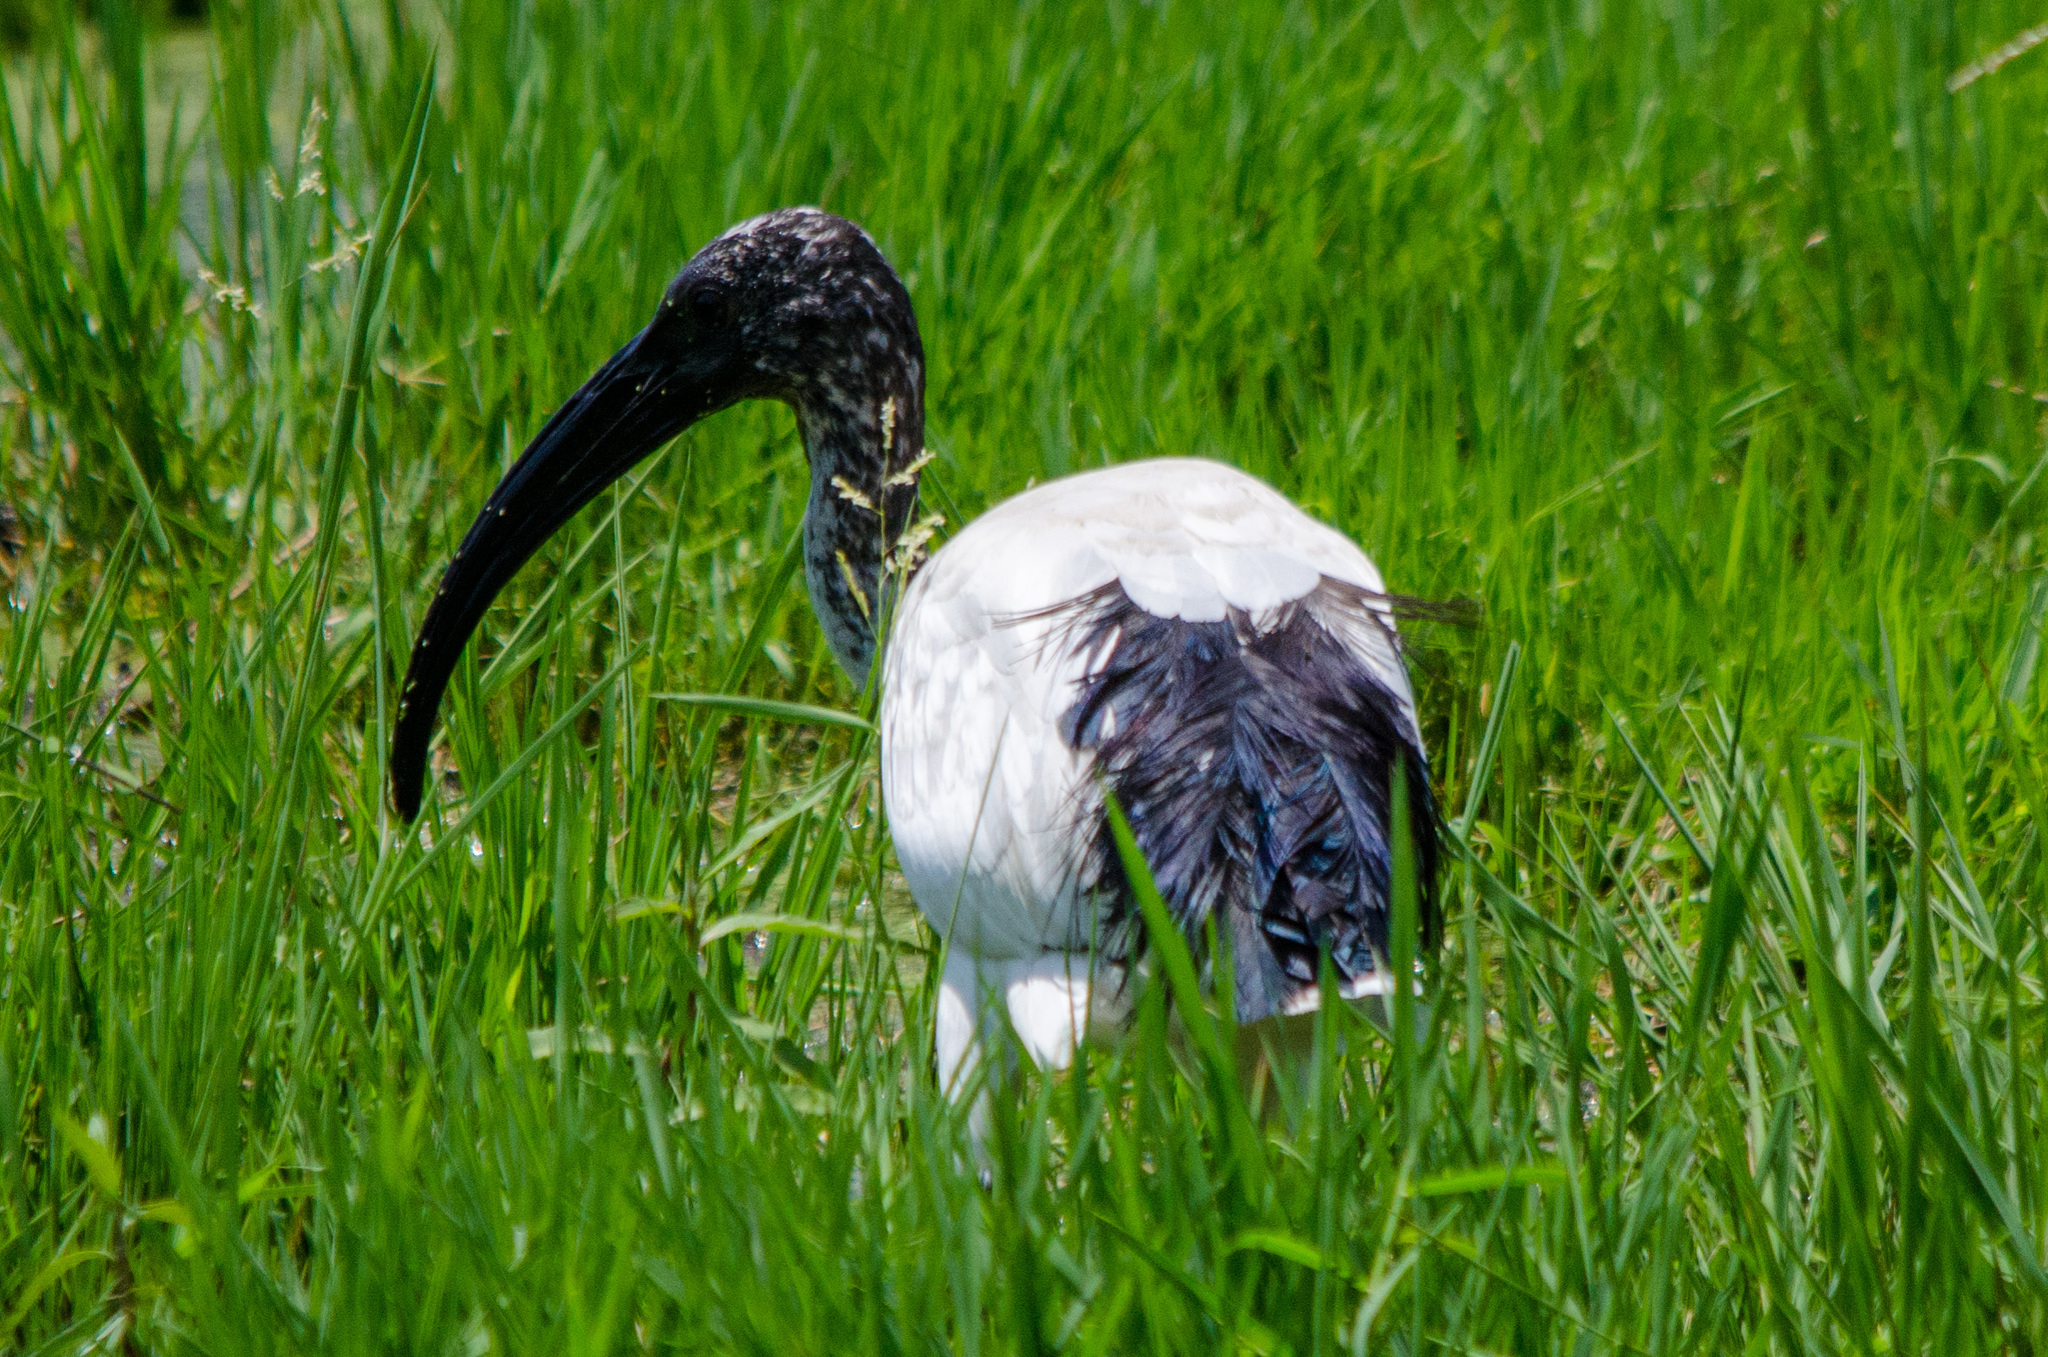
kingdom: Animalia
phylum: Chordata
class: Aves
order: Pelecaniformes
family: Threskiornithidae
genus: Threskiornis
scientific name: Threskiornis aethiopicus
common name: Sacred ibis
